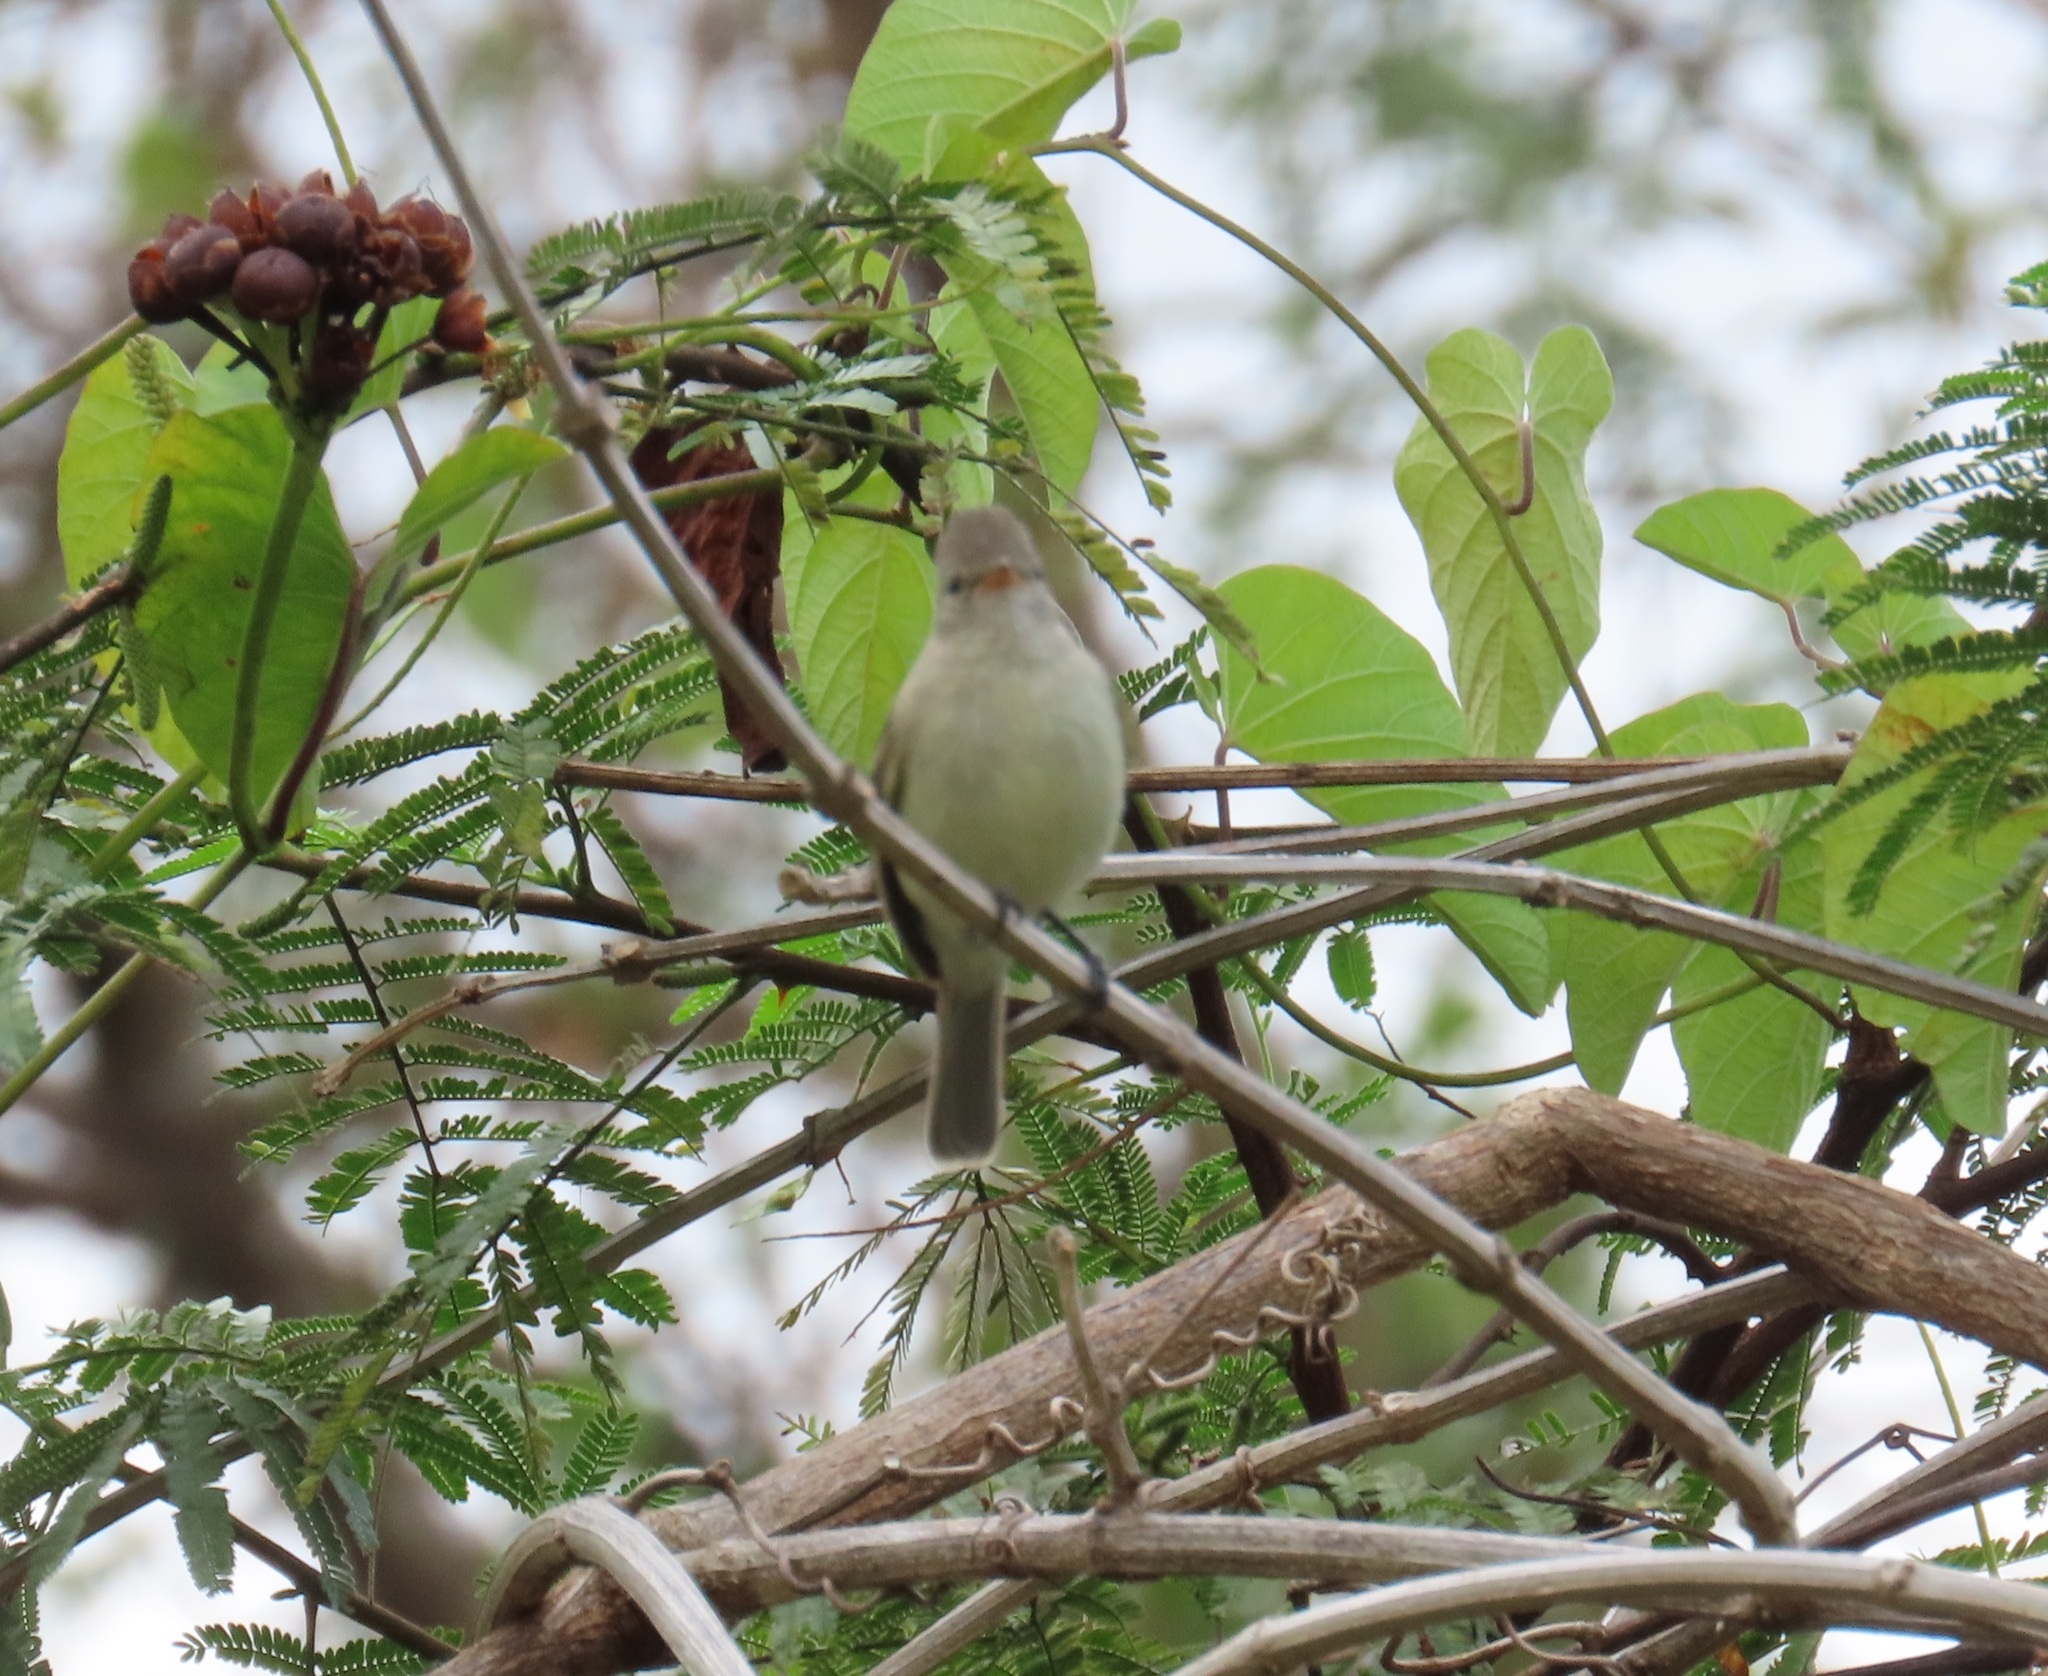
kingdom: Animalia
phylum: Chordata
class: Aves
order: Passeriformes
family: Tyrannidae
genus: Camptostoma
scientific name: Camptostoma imberbe
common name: Northern beardless-tyrannulet
